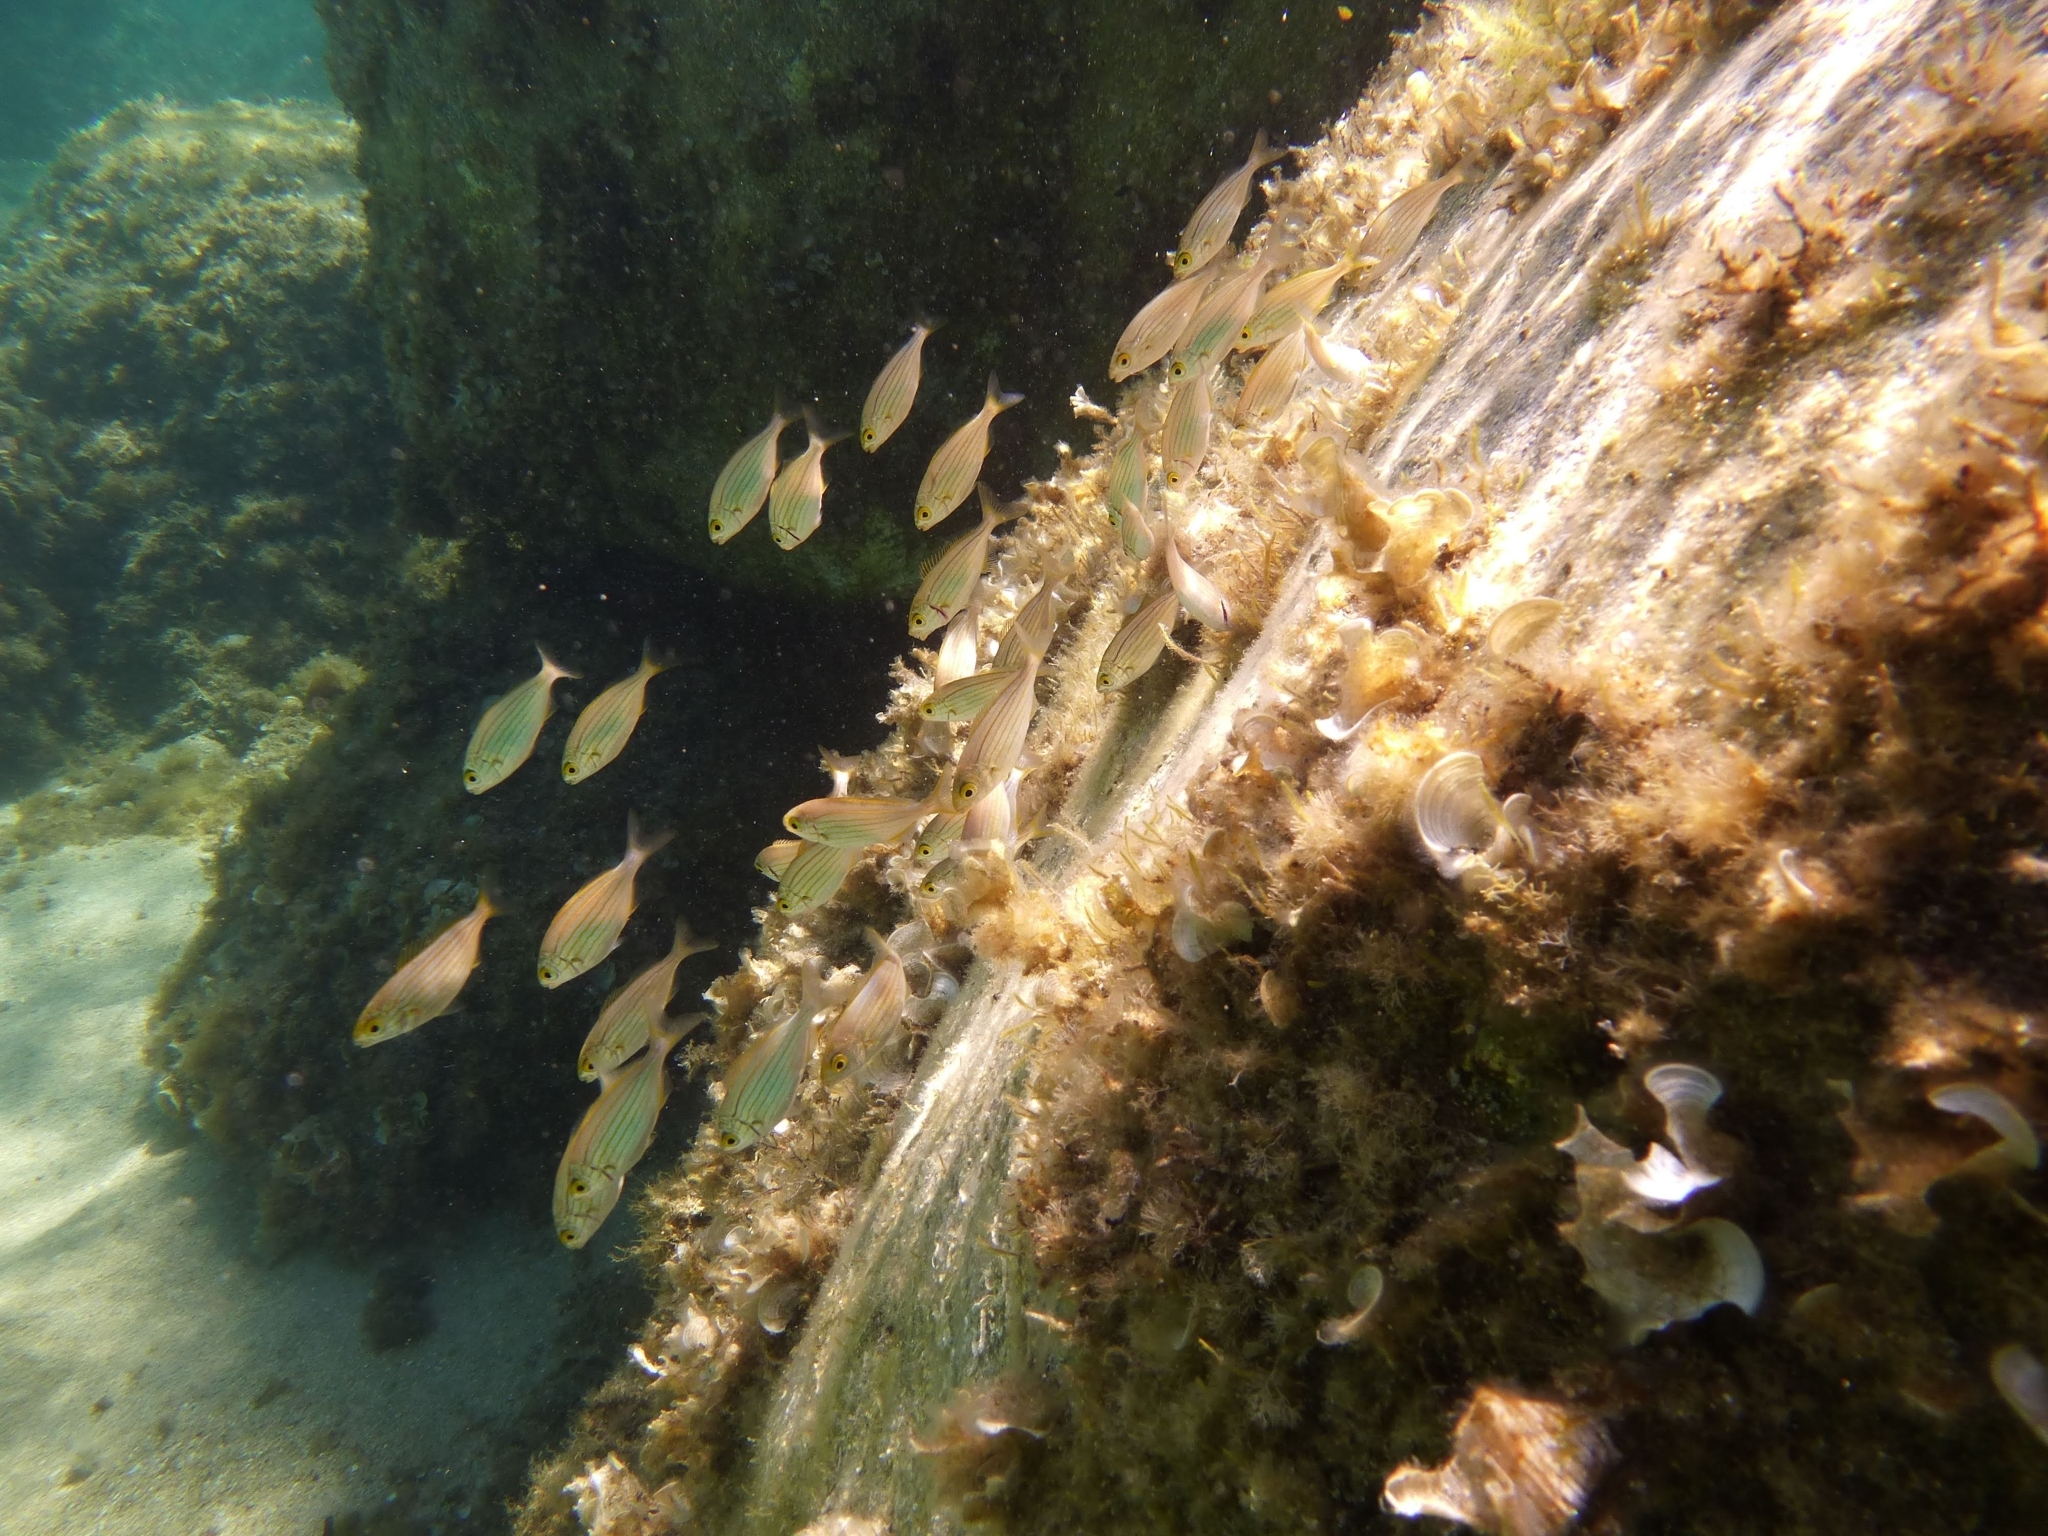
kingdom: Animalia
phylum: Chordata
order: Perciformes
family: Sparidae
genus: Sarpa
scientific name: Sarpa salpa
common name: Salema
